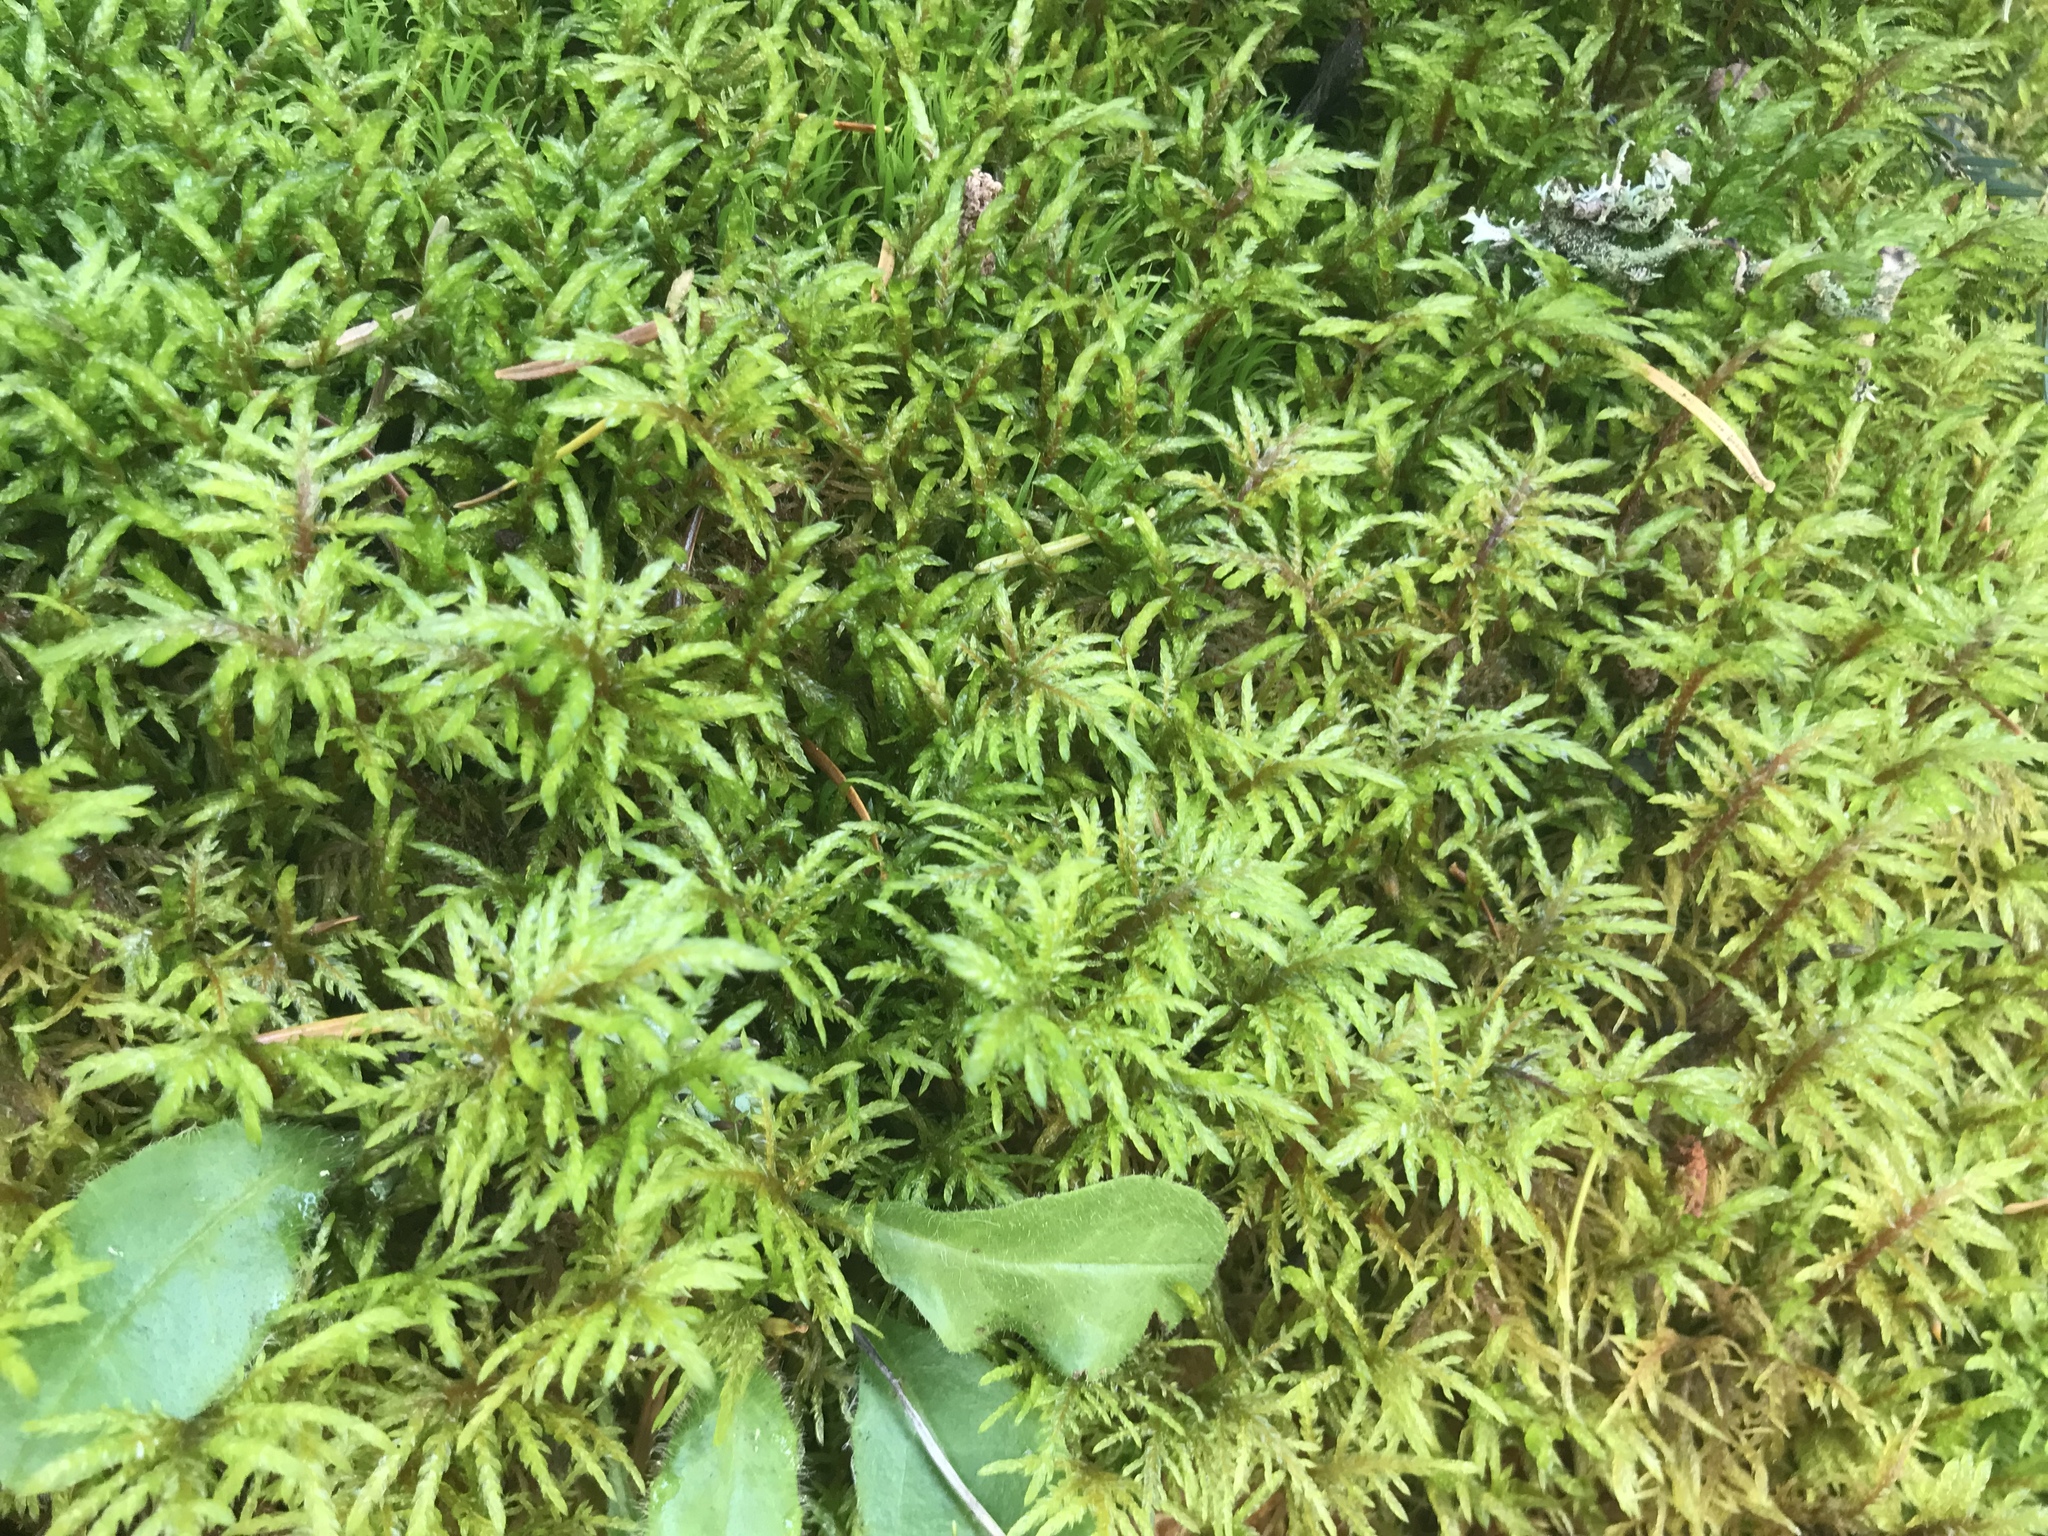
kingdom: Plantae
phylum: Bryophyta
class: Bryopsida
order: Hypnales
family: Hylocomiaceae
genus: Hylocomium
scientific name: Hylocomium splendens
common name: Stairstep moss
